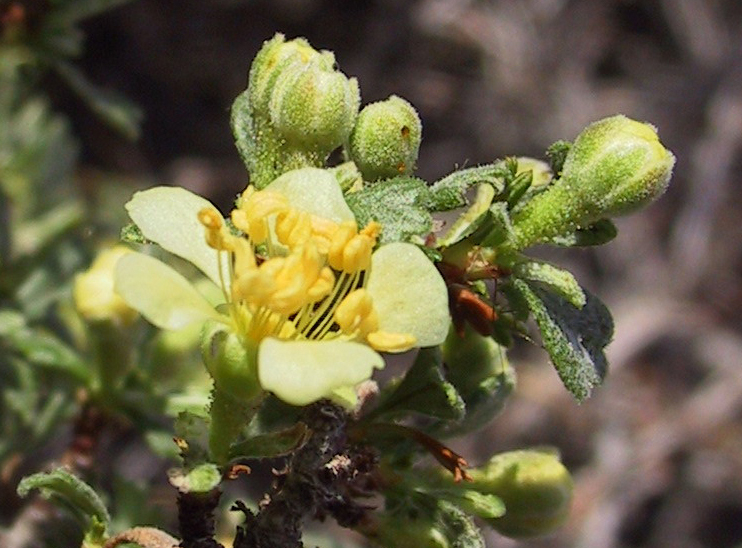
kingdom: Plantae
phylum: Tracheophyta
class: Magnoliopsida
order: Rosales
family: Rosaceae
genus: Purshia
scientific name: Purshia tridentata
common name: Antelope bitterbrush
